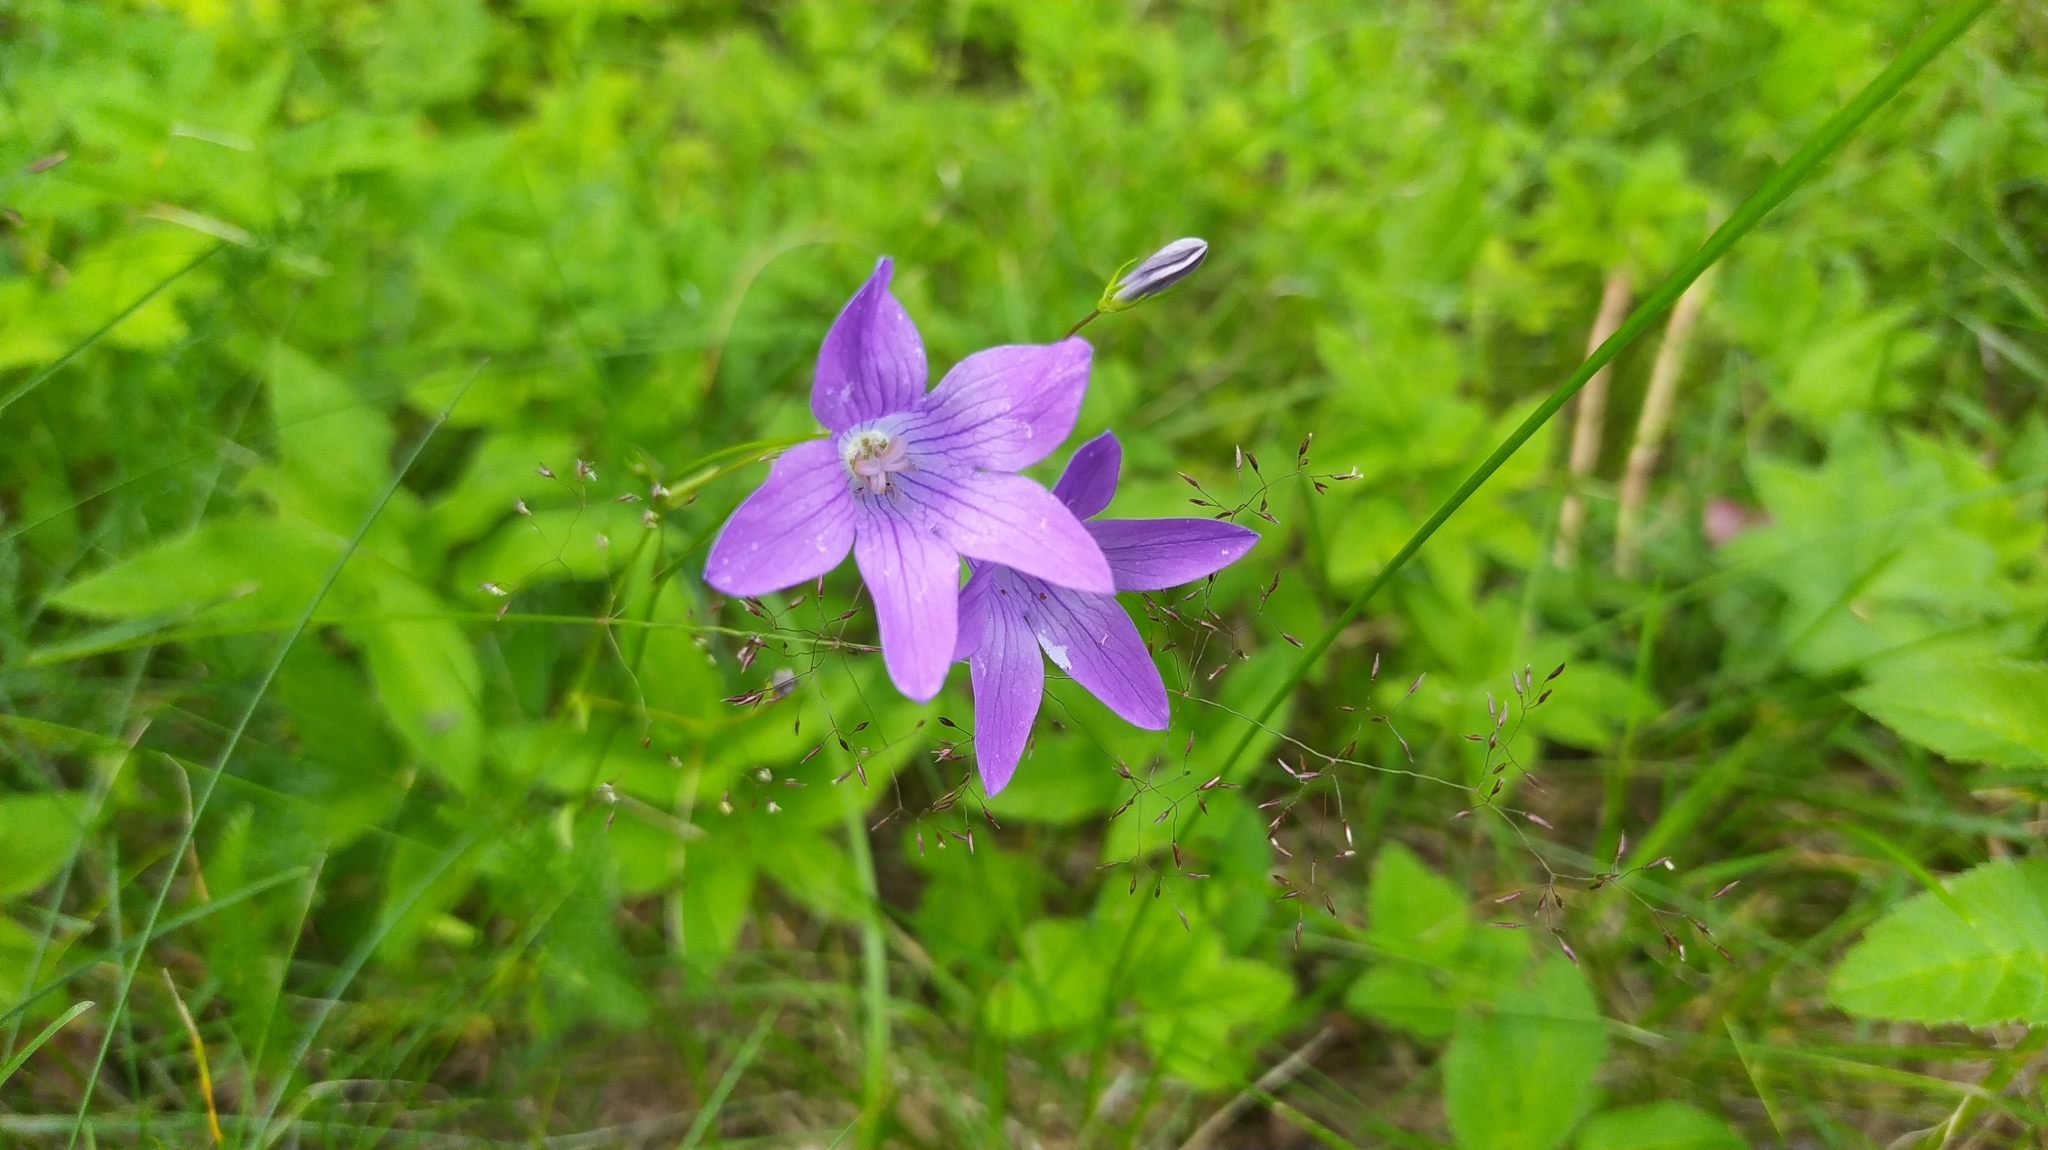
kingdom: Plantae
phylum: Tracheophyta
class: Magnoliopsida
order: Asterales
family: Campanulaceae
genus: Campanula
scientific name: Campanula patula
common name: Spreading bellflower
